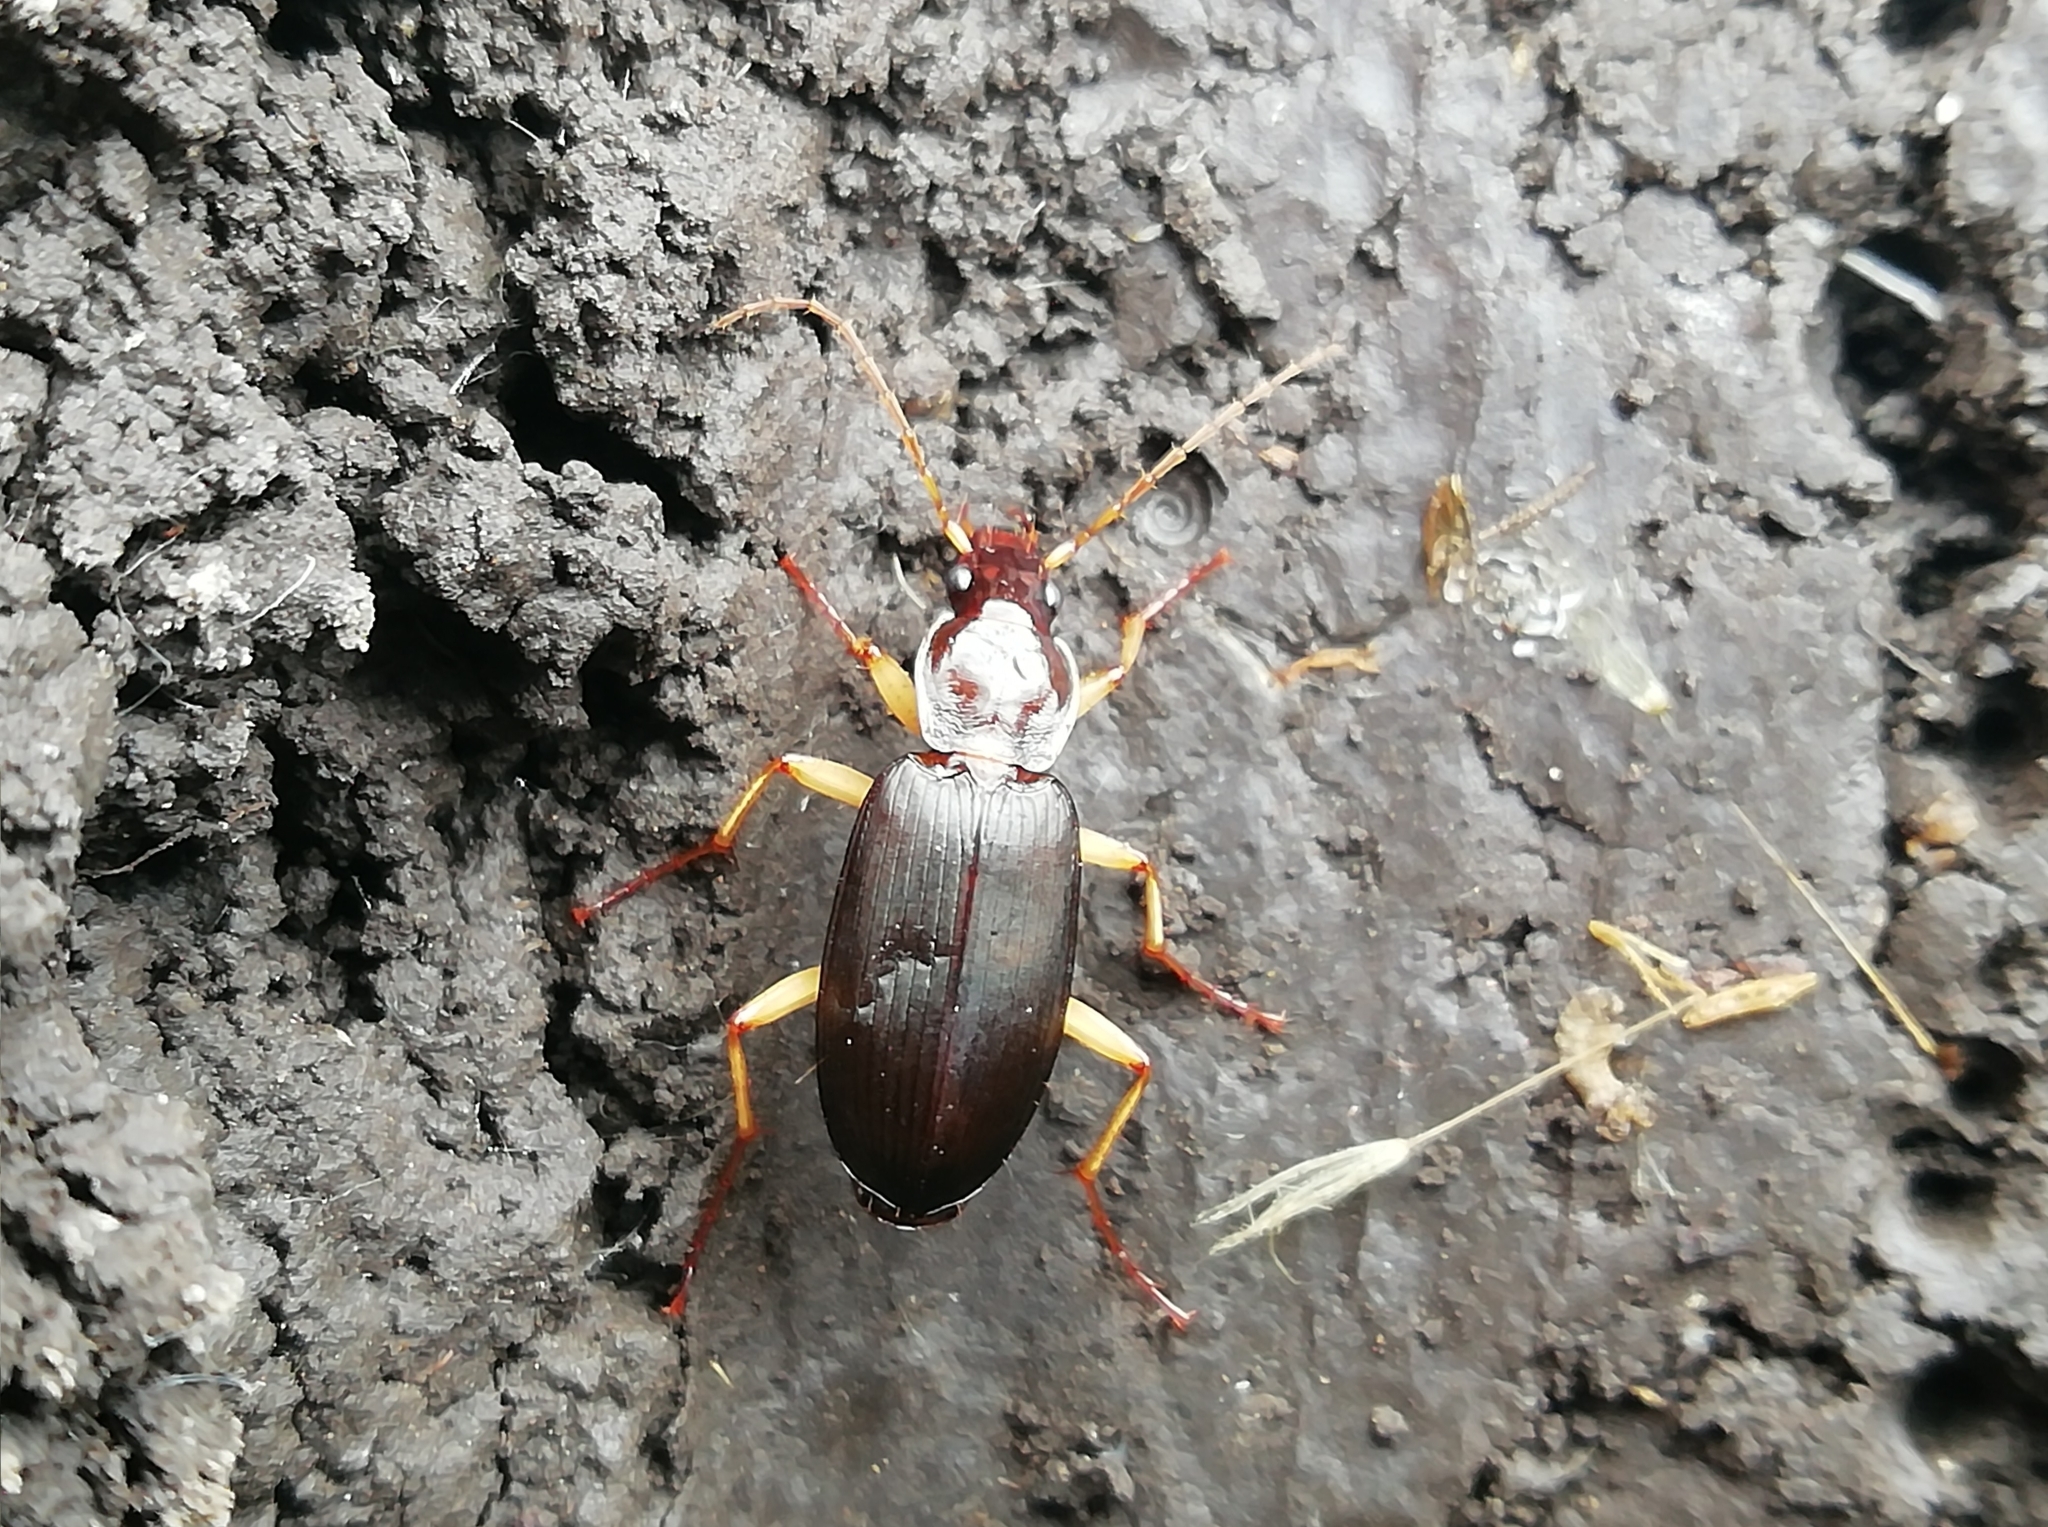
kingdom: Animalia
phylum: Arthropoda
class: Insecta
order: Coleoptera
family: Carabidae
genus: Dolichus
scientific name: Dolichus halensis
